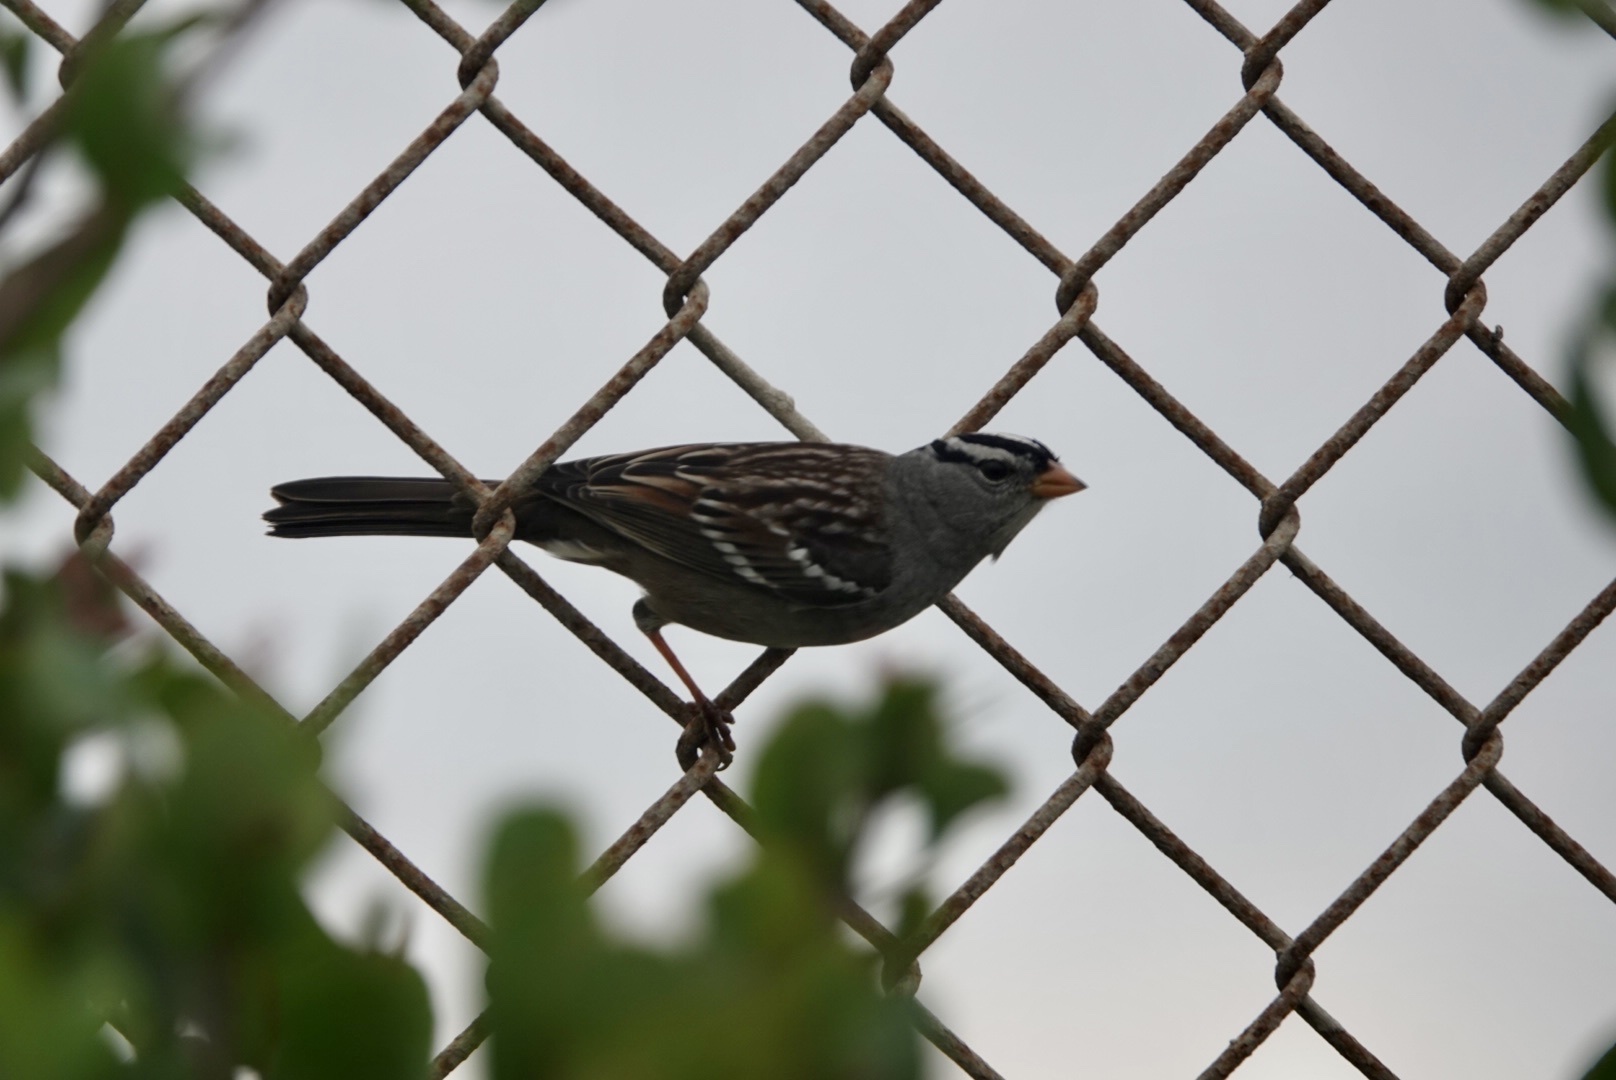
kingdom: Animalia
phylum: Chordata
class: Aves
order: Passeriformes
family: Passerellidae
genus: Zonotrichia
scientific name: Zonotrichia leucophrys
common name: White-crowned sparrow
